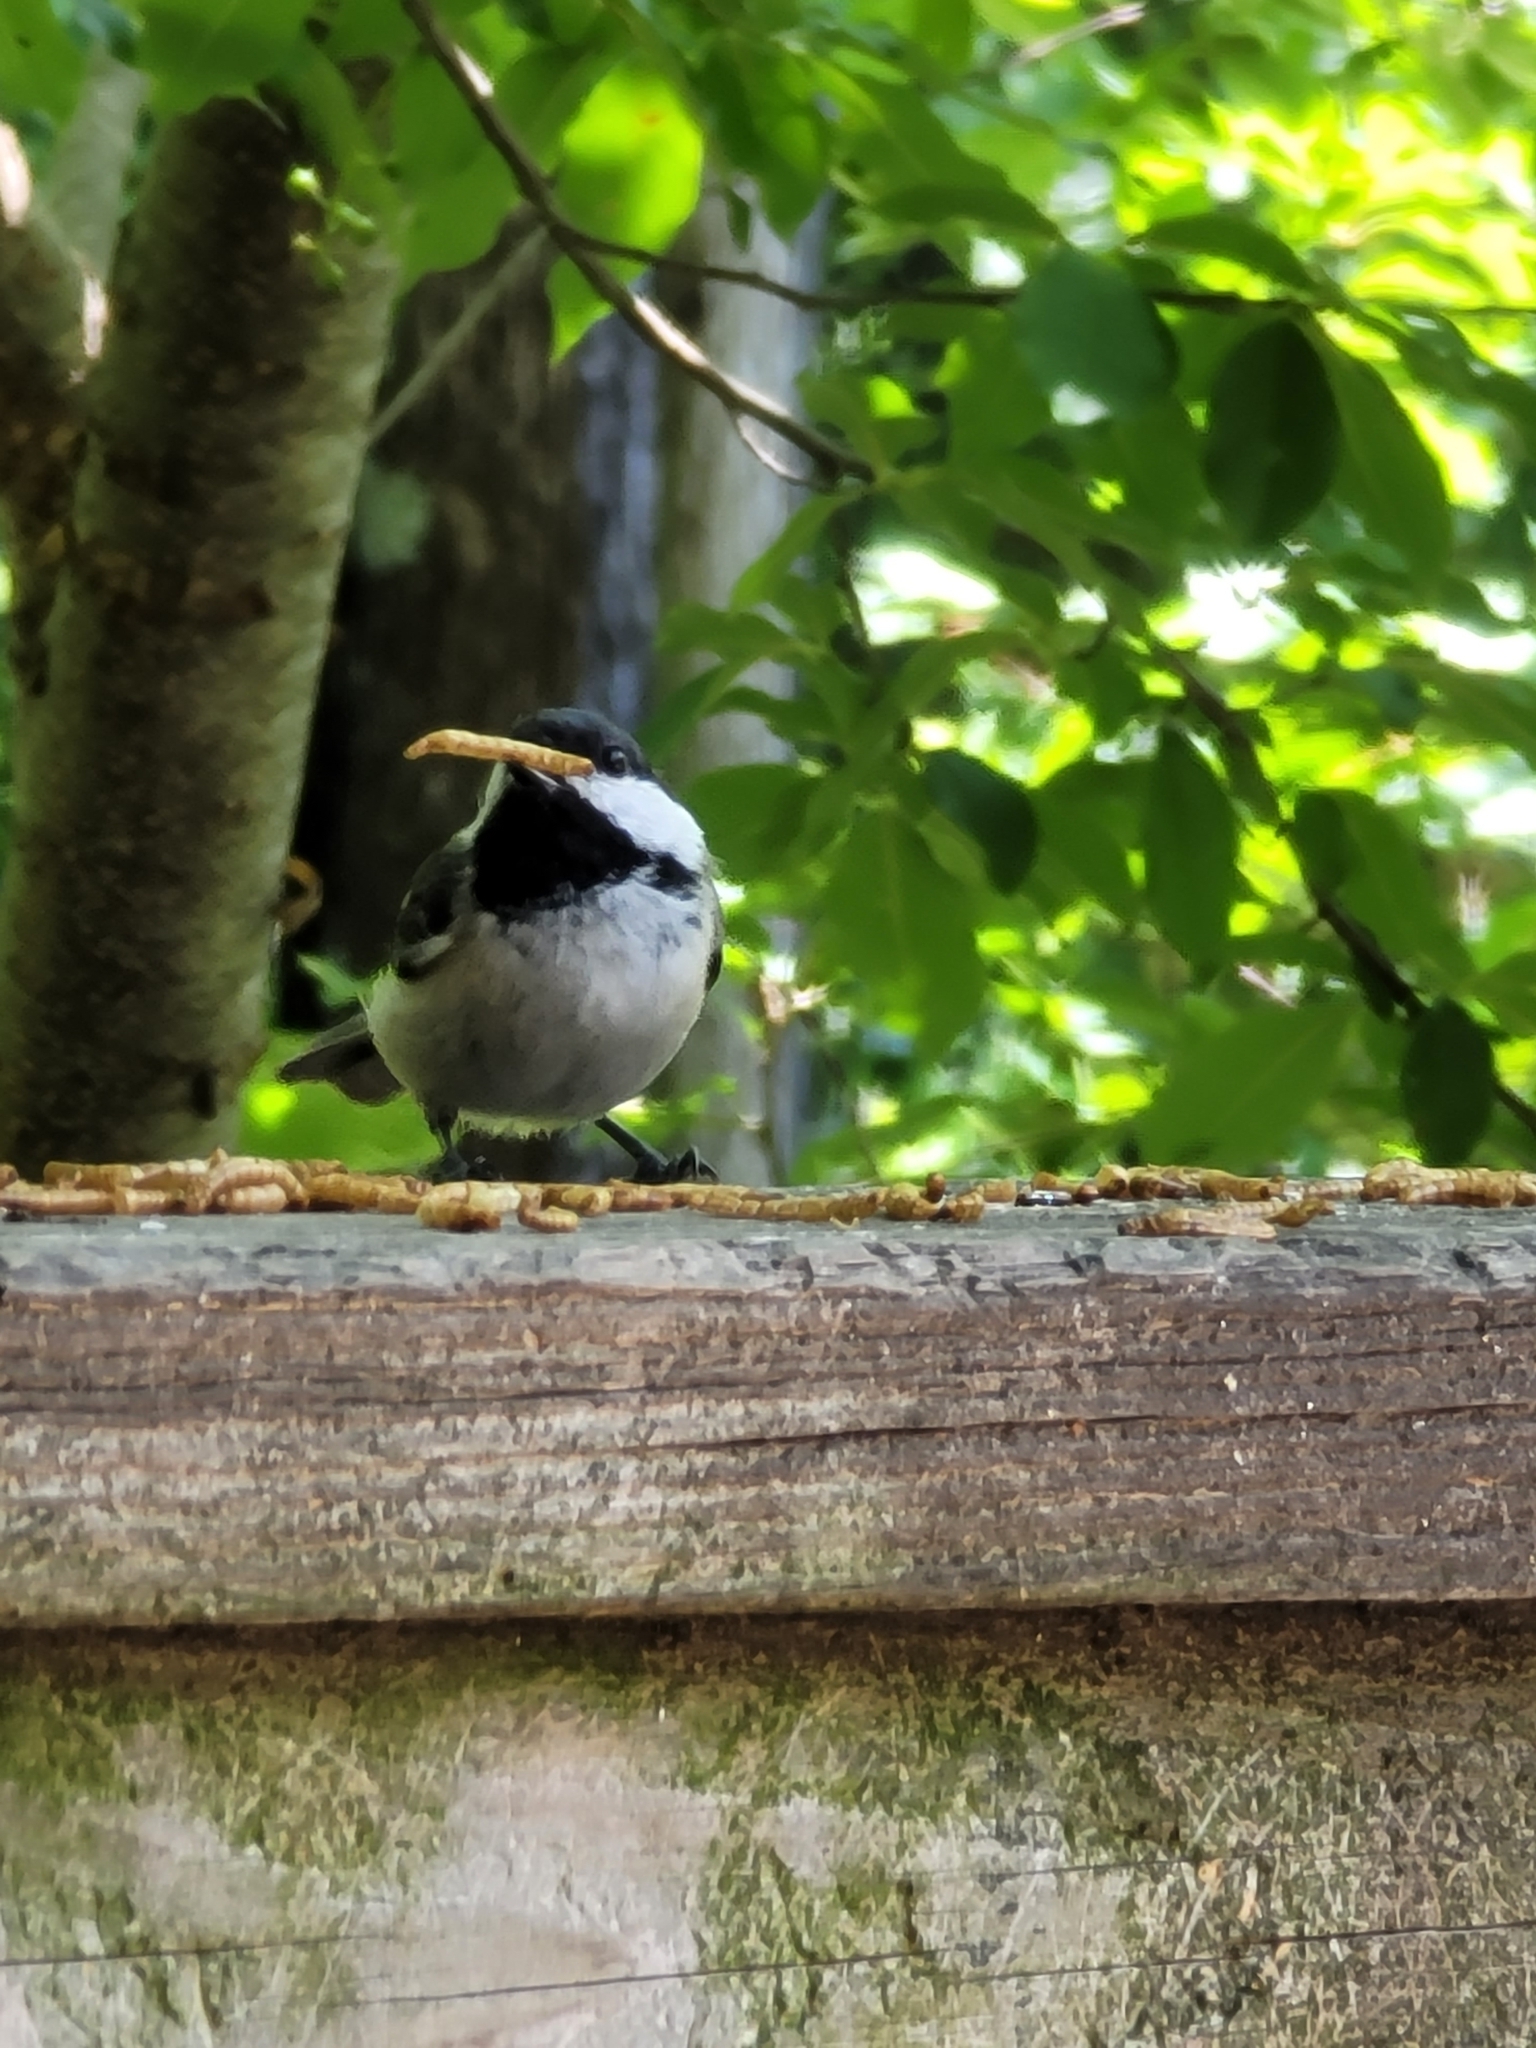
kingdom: Animalia
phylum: Chordata
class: Aves
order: Passeriformes
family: Paridae
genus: Poecile
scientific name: Poecile atricapillus
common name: Black-capped chickadee
